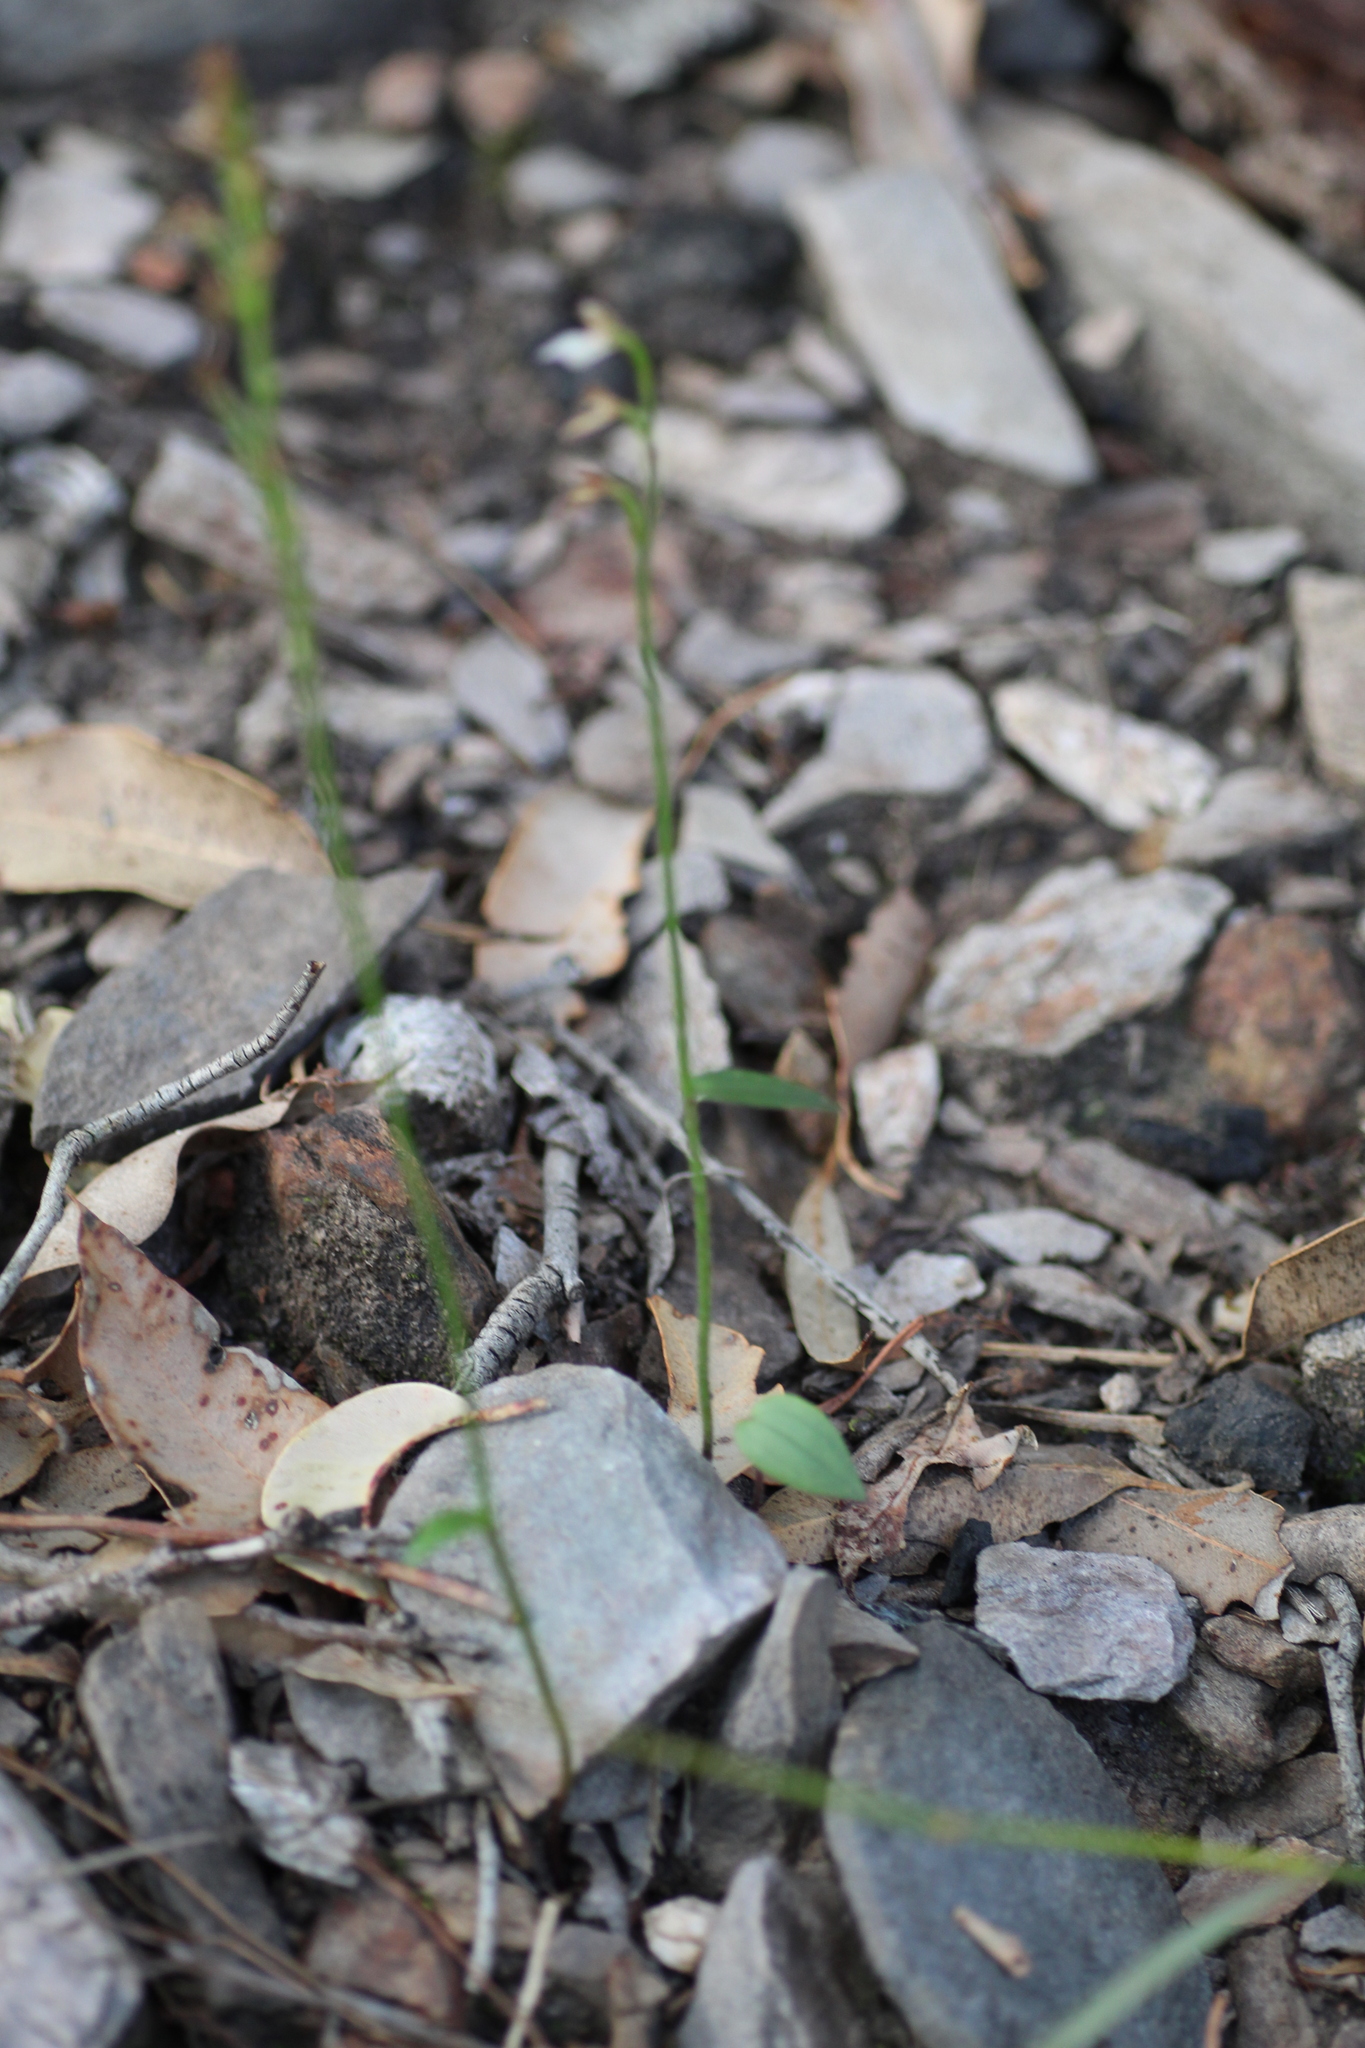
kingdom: Plantae
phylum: Tracheophyta
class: Liliopsida
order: Asparagales
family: Orchidaceae
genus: Eriochilus
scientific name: Eriochilus dilatatus
